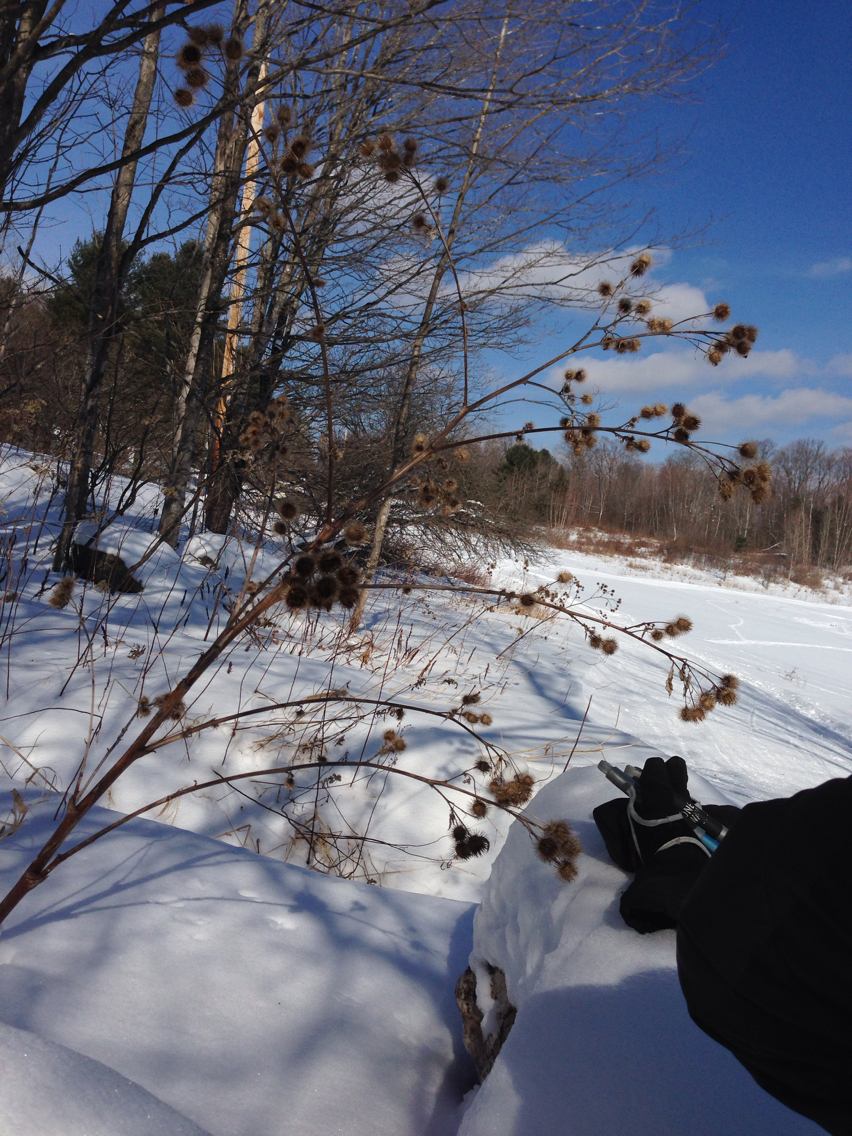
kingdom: Plantae
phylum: Tracheophyta
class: Magnoliopsida
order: Asterales
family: Asteraceae
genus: Arctium
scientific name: Arctium lappa
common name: Greater burdock
